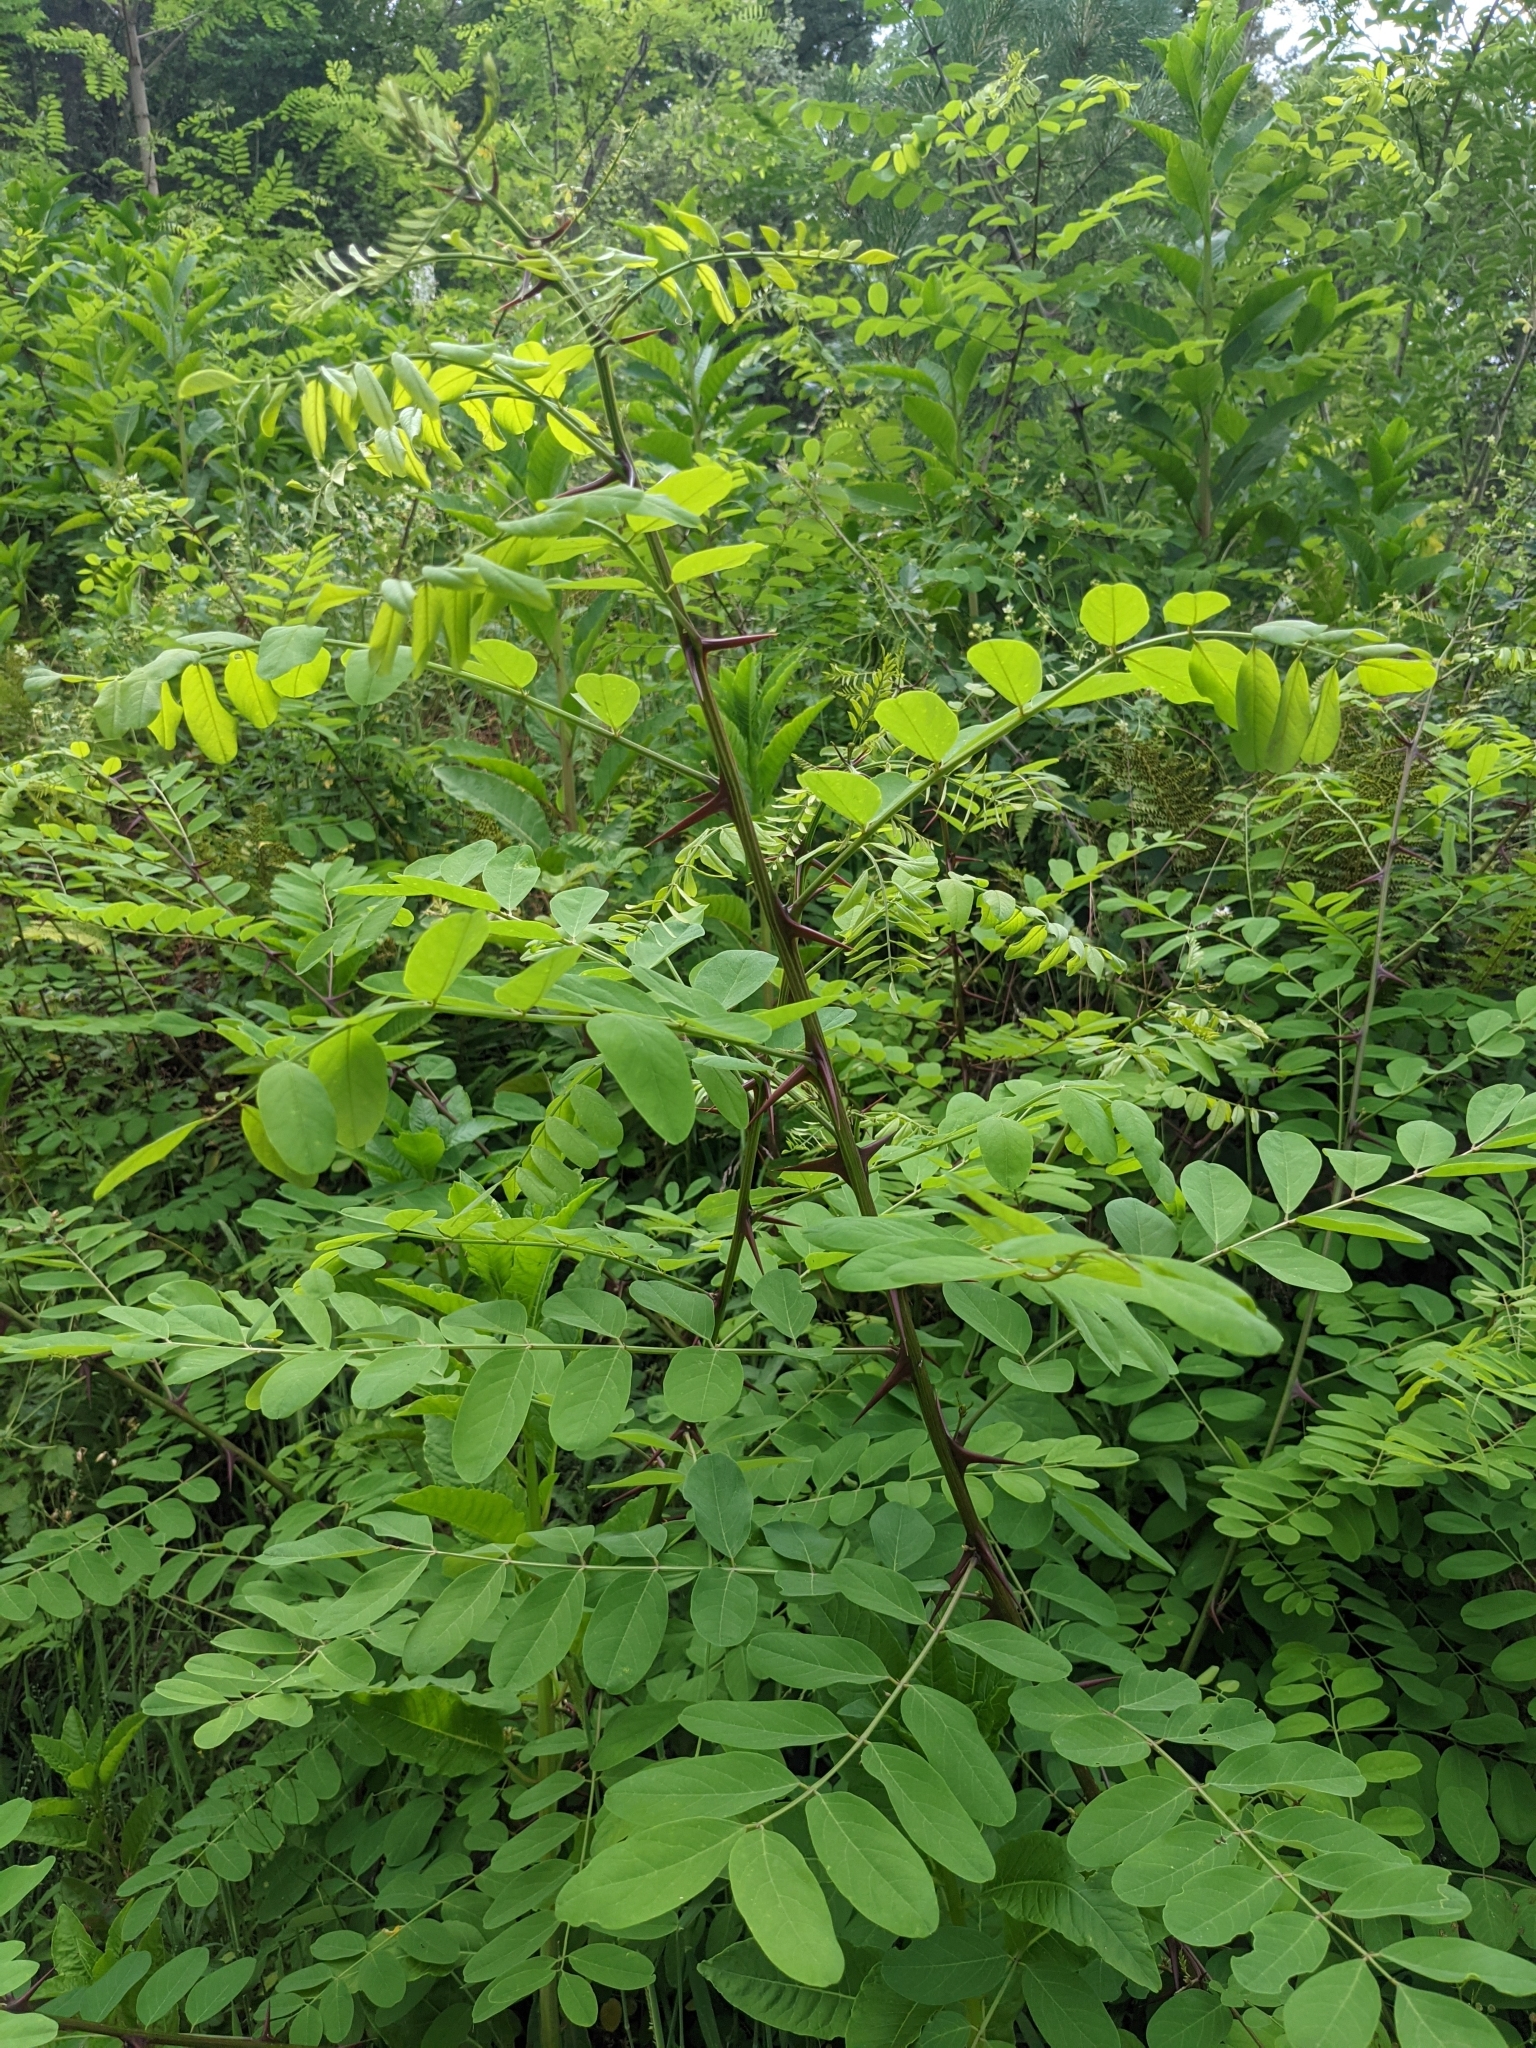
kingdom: Plantae
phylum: Tracheophyta
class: Magnoliopsida
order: Fabales
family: Fabaceae
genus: Robinia
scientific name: Robinia pseudoacacia
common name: Black locust
